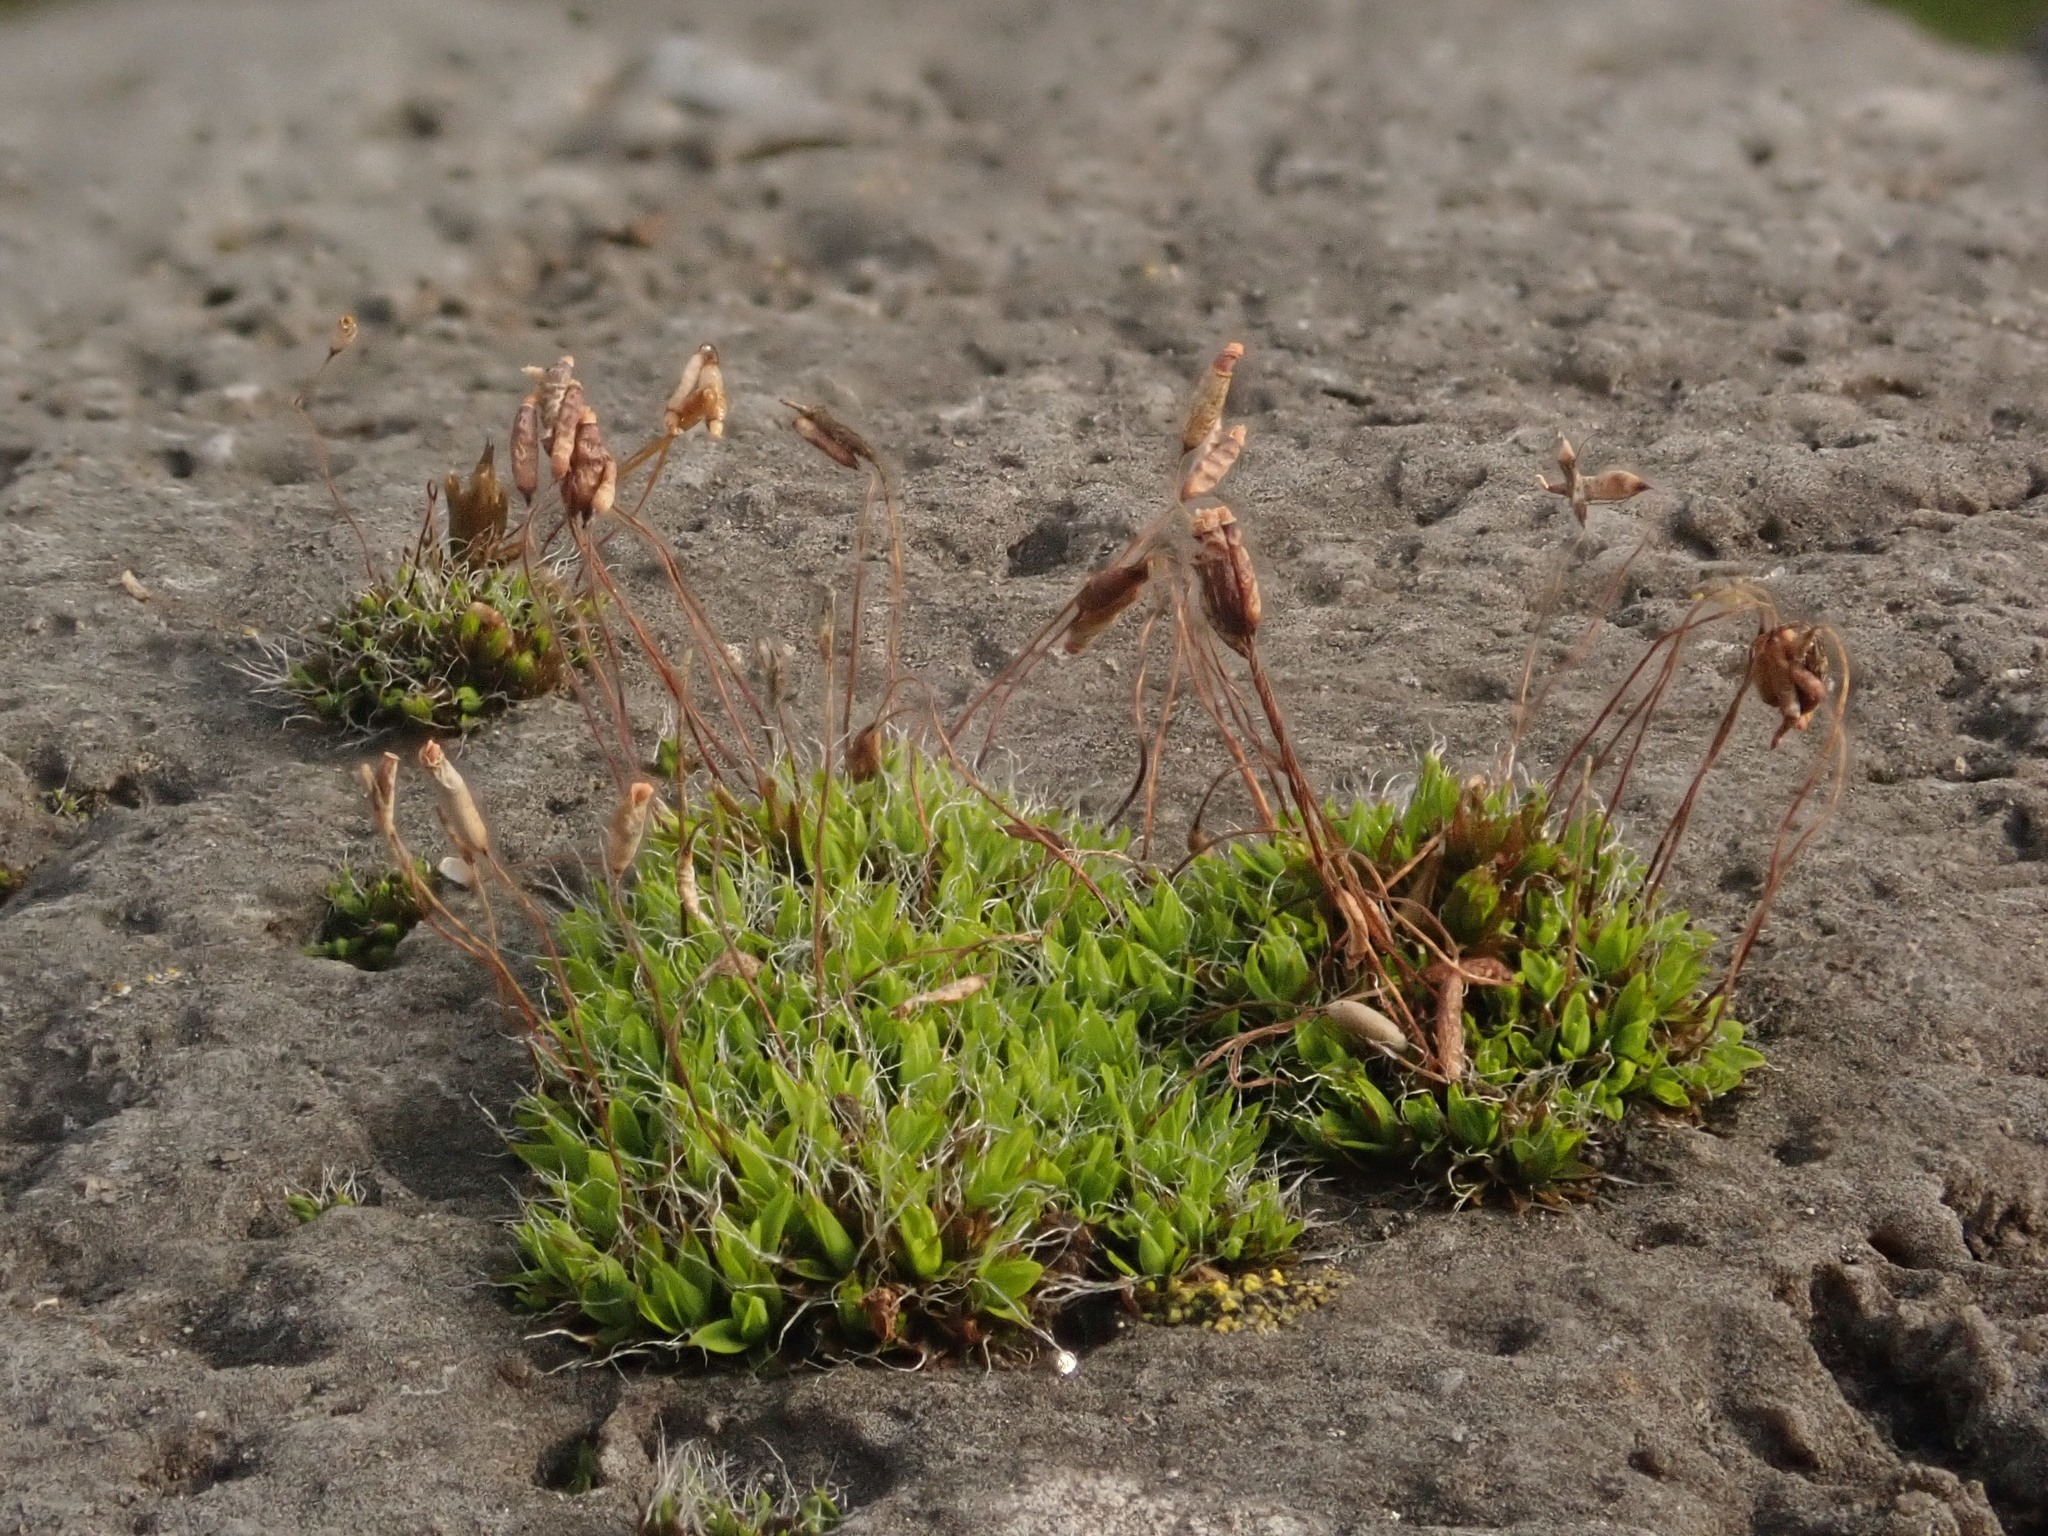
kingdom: Plantae
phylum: Bryophyta
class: Bryopsida
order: Pottiales
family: Pottiaceae
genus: Tortula
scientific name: Tortula muralis
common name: Wall screw-moss
